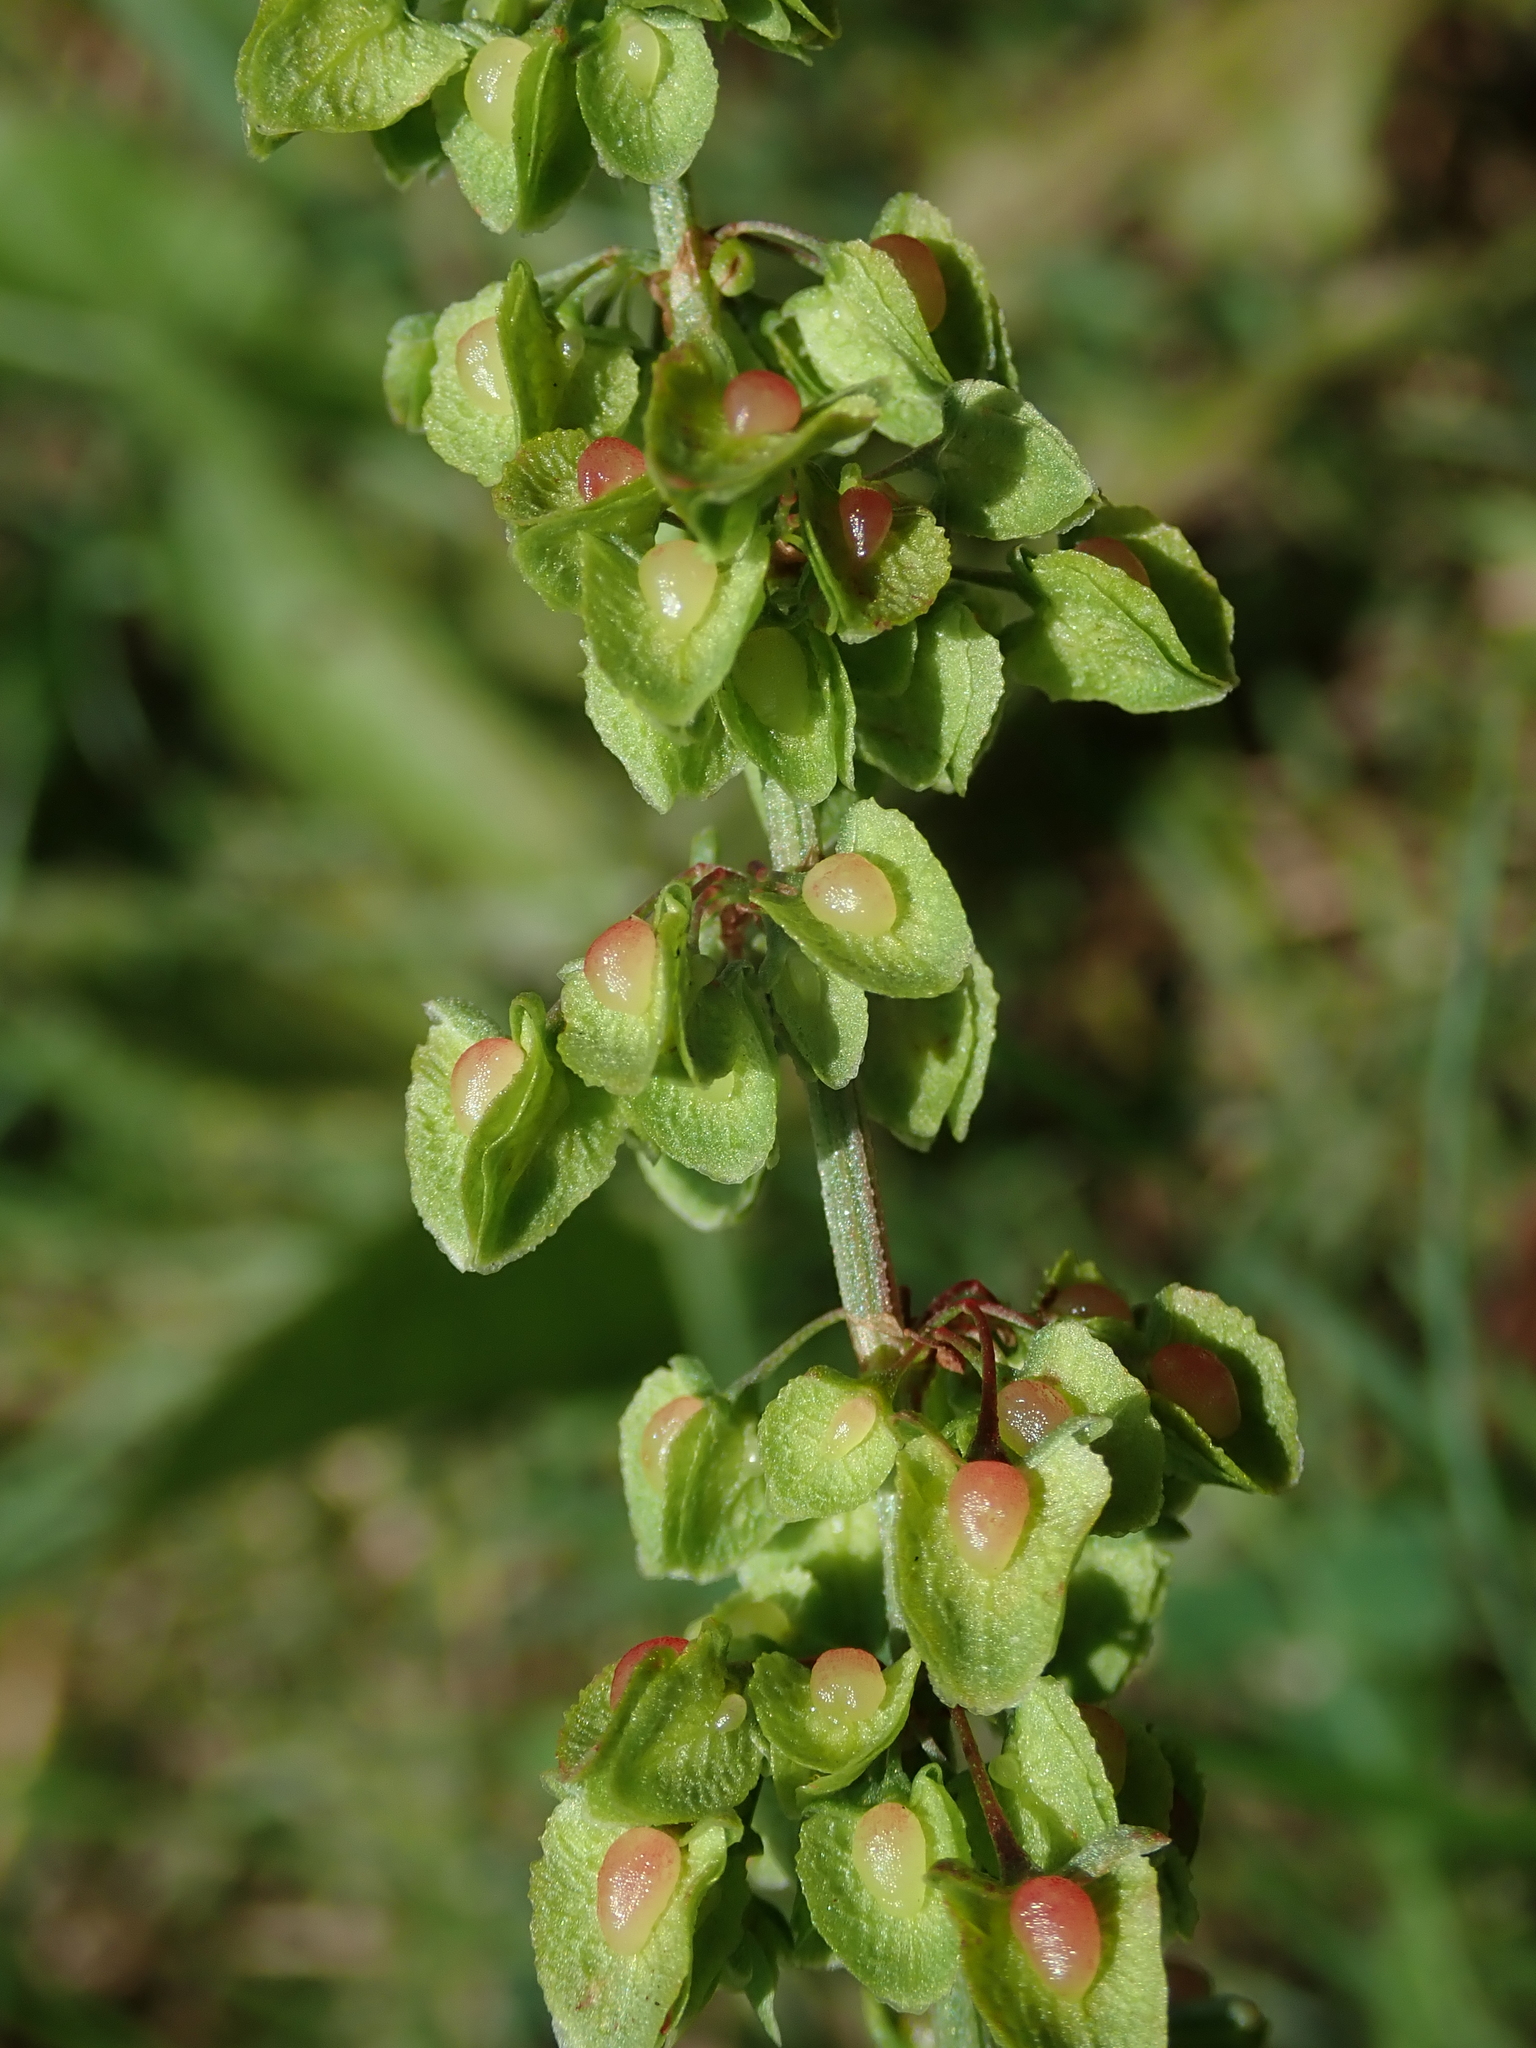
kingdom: Plantae
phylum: Tracheophyta
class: Magnoliopsida
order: Caryophyllales
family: Polygonaceae
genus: Rumex
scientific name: Rumex crispus
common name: Curled dock
